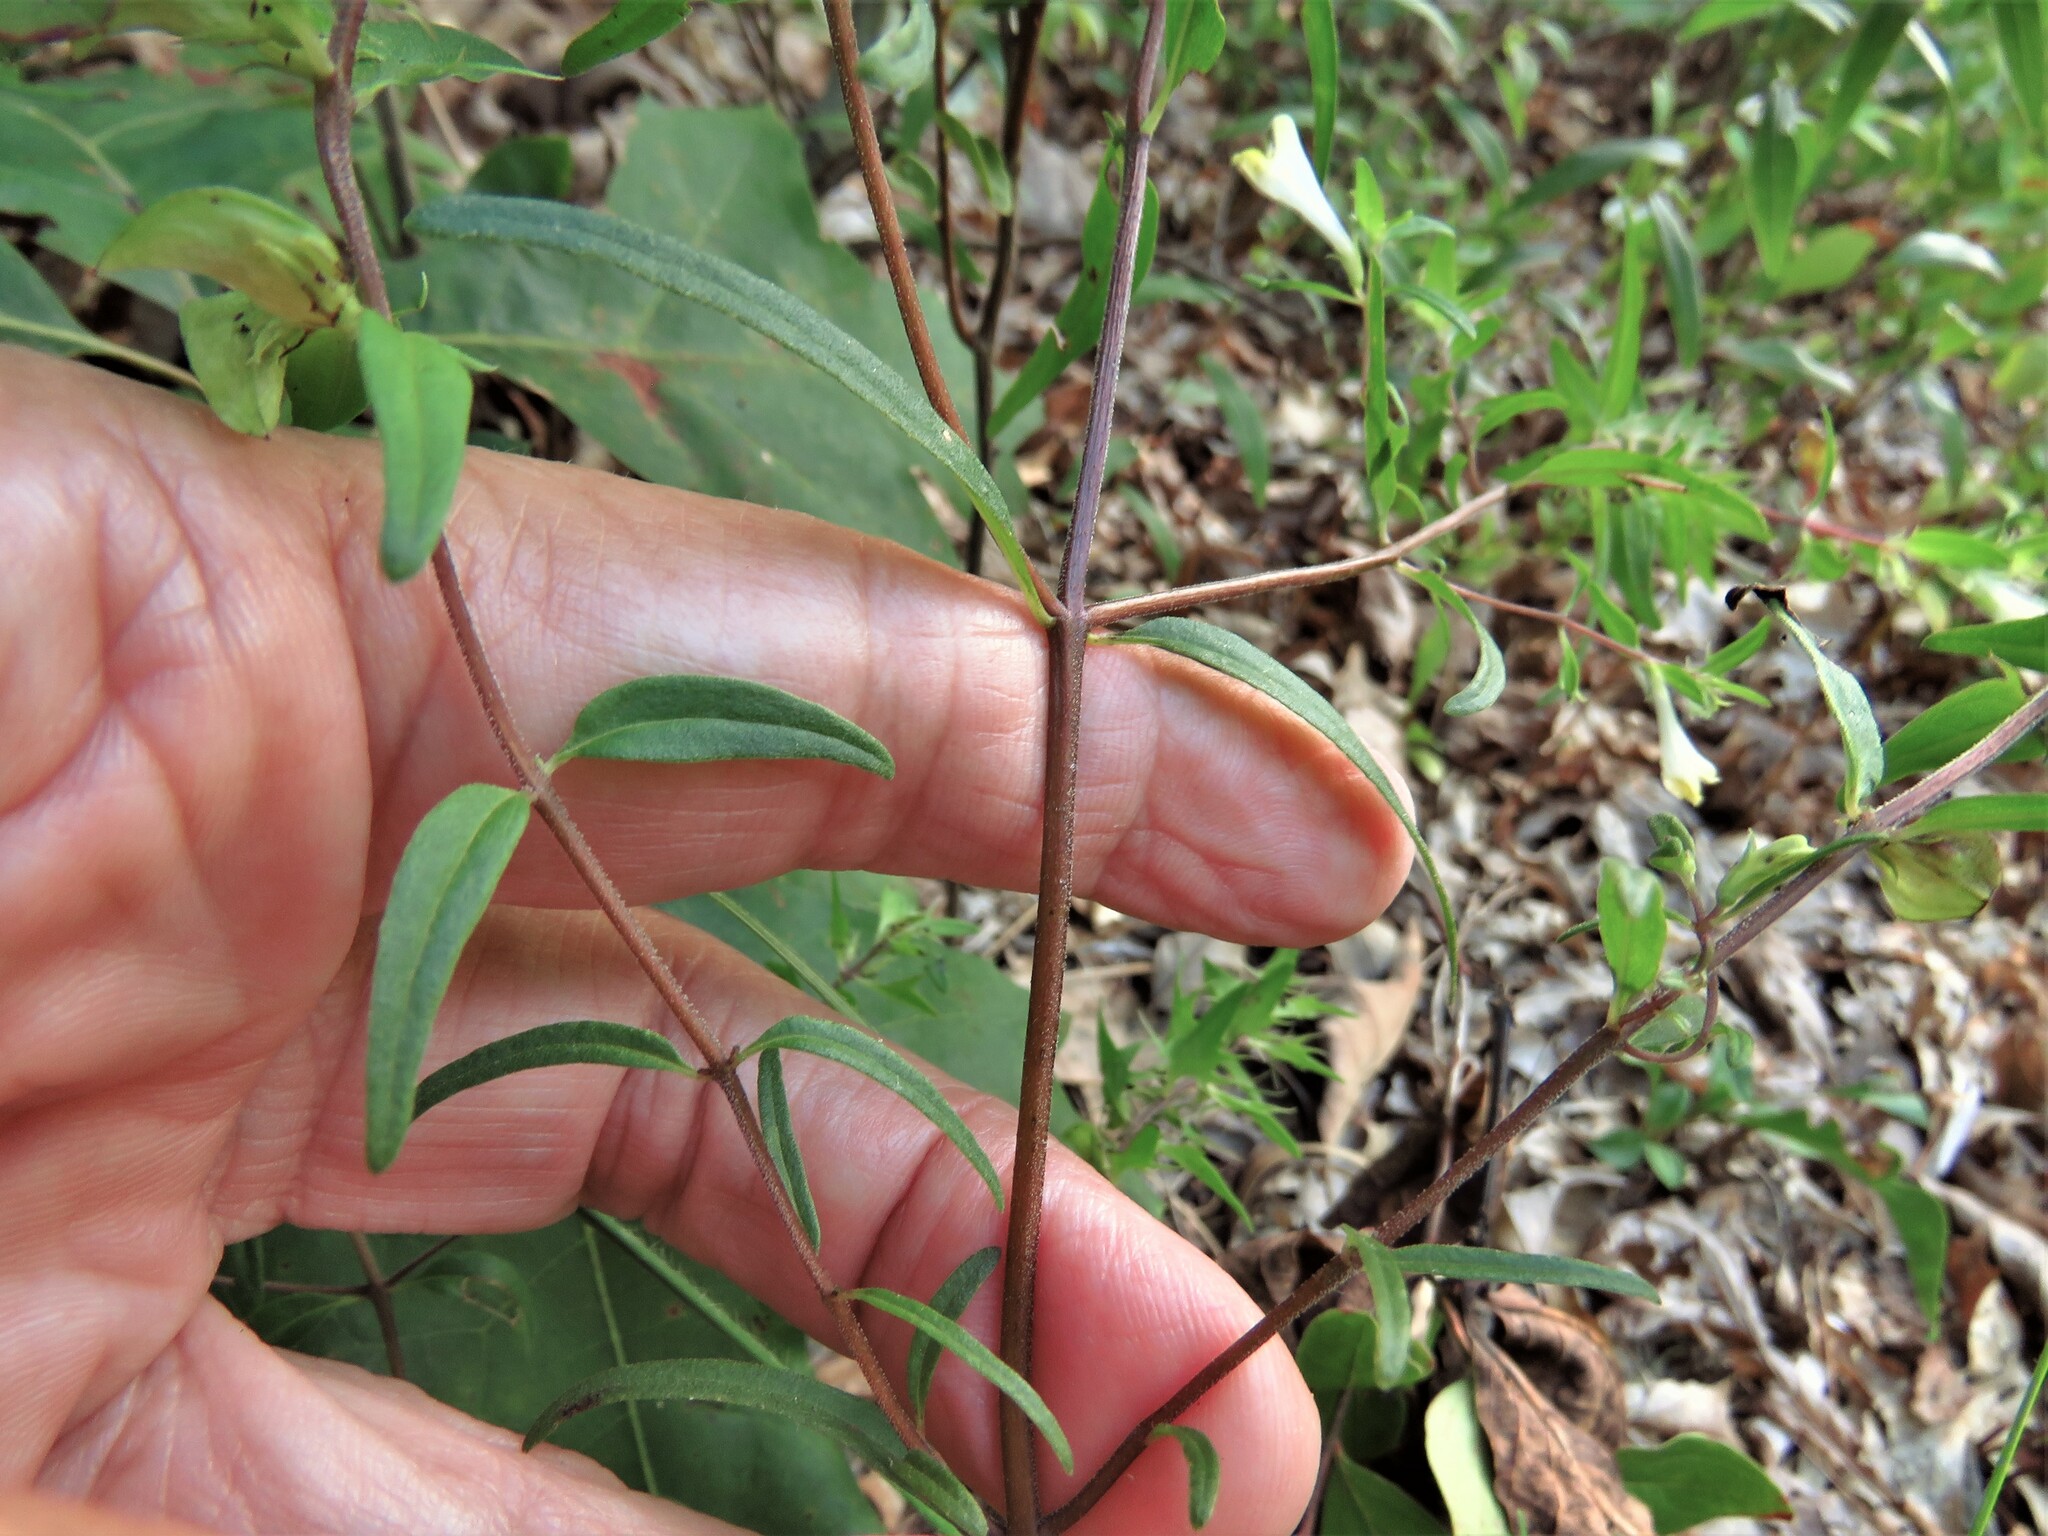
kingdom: Plantae
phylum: Tracheophyta
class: Magnoliopsida
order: Lamiales
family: Orobanchaceae
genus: Melampyrum
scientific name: Melampyrum lineare
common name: American cow-wheat
